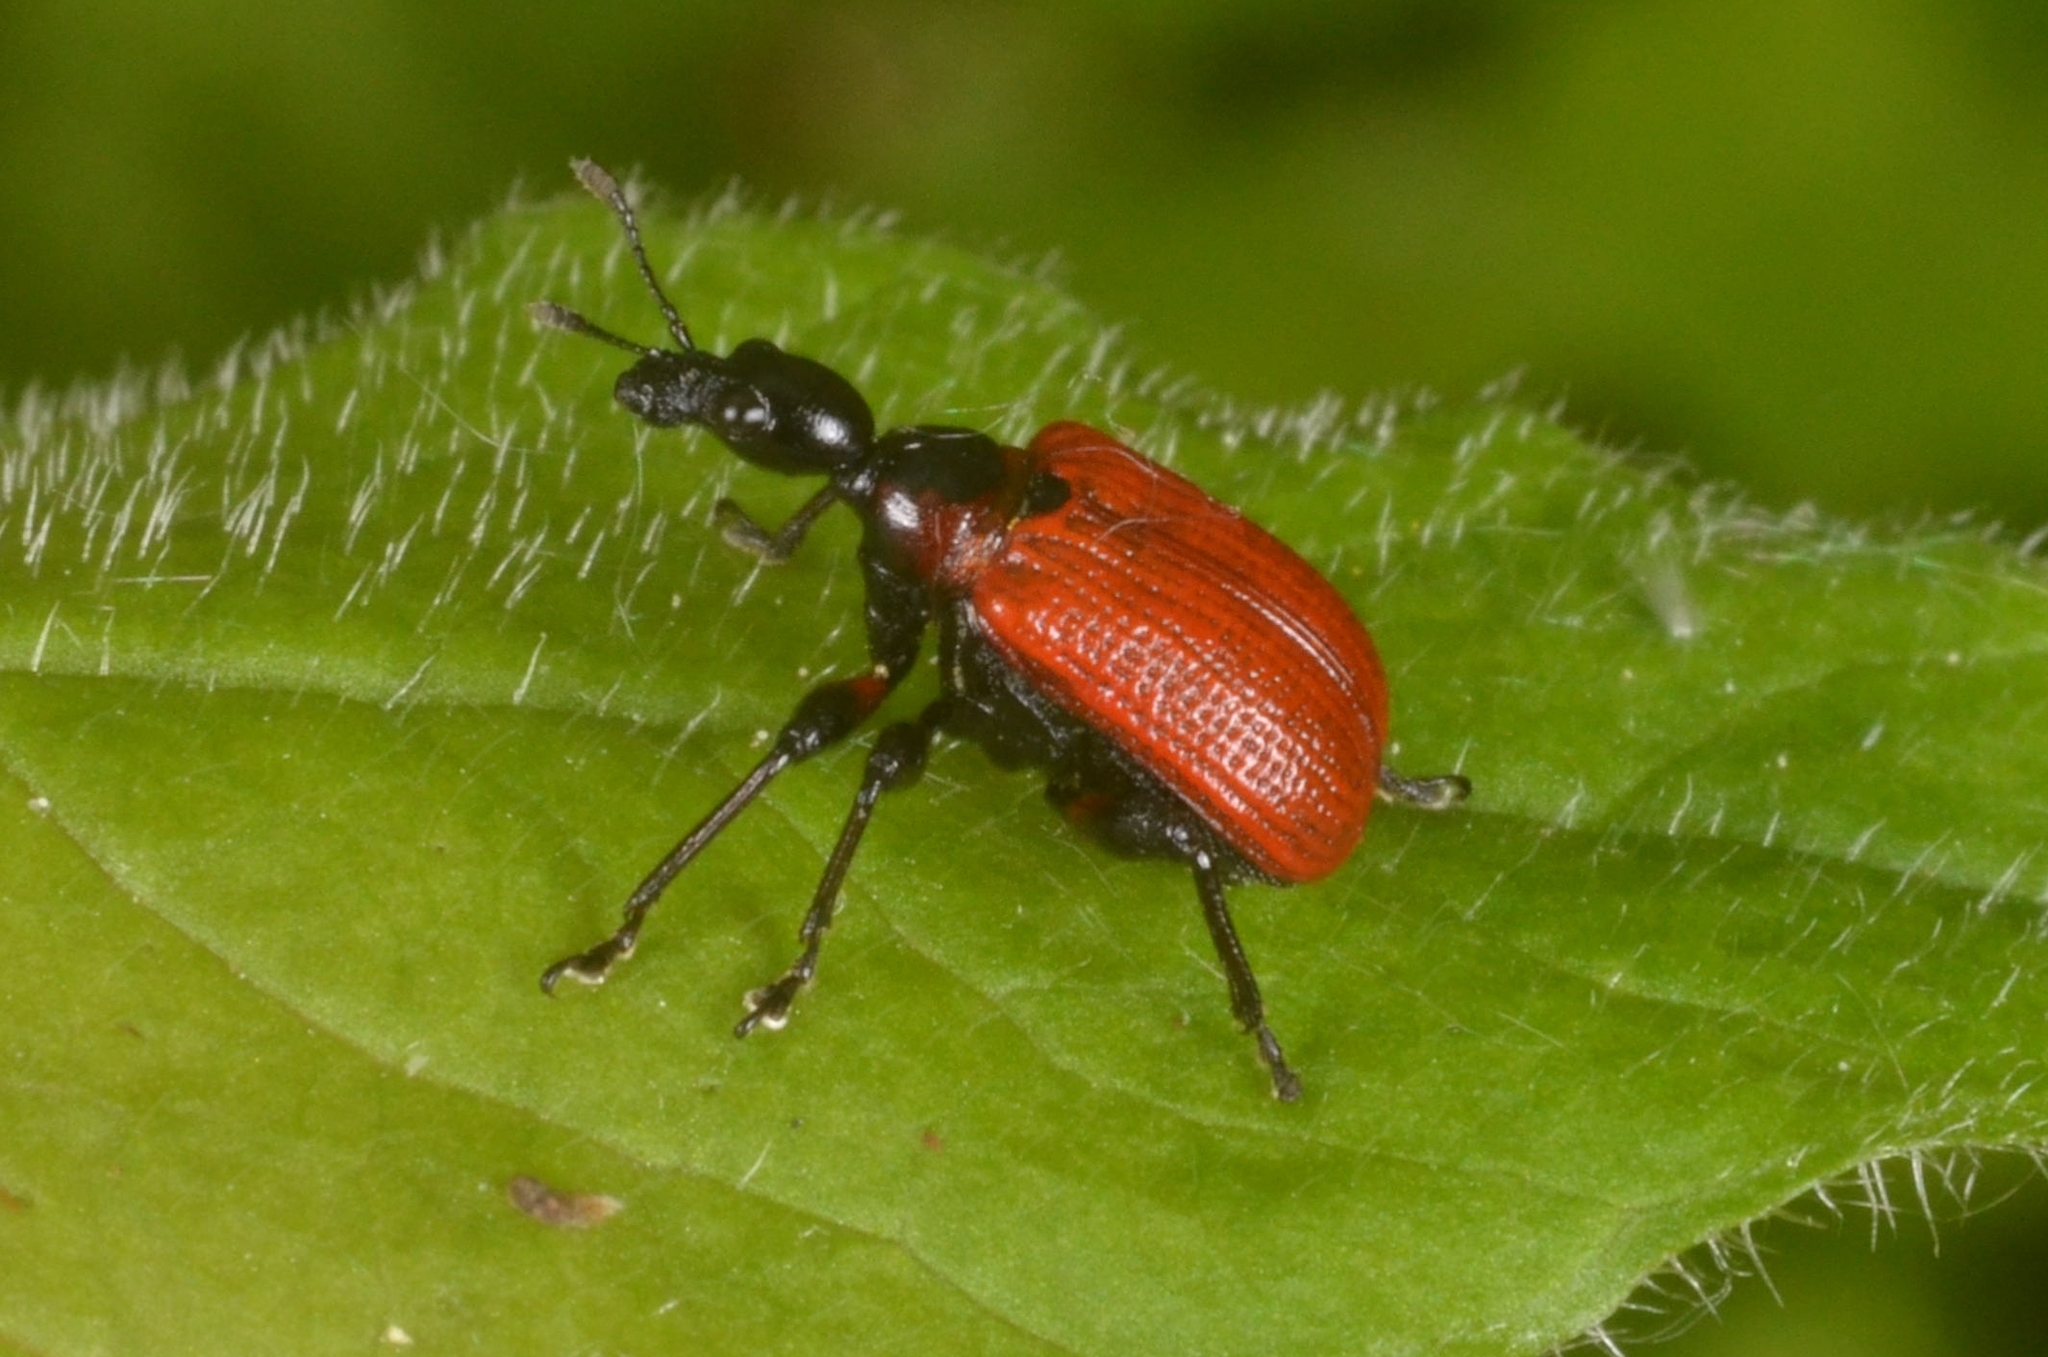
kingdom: Animalia
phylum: Arthropoda
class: Insecta
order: Coleoptera
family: Attelabidae
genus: Apoderus
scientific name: Apoderus coryli
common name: Hazel leaf roller
